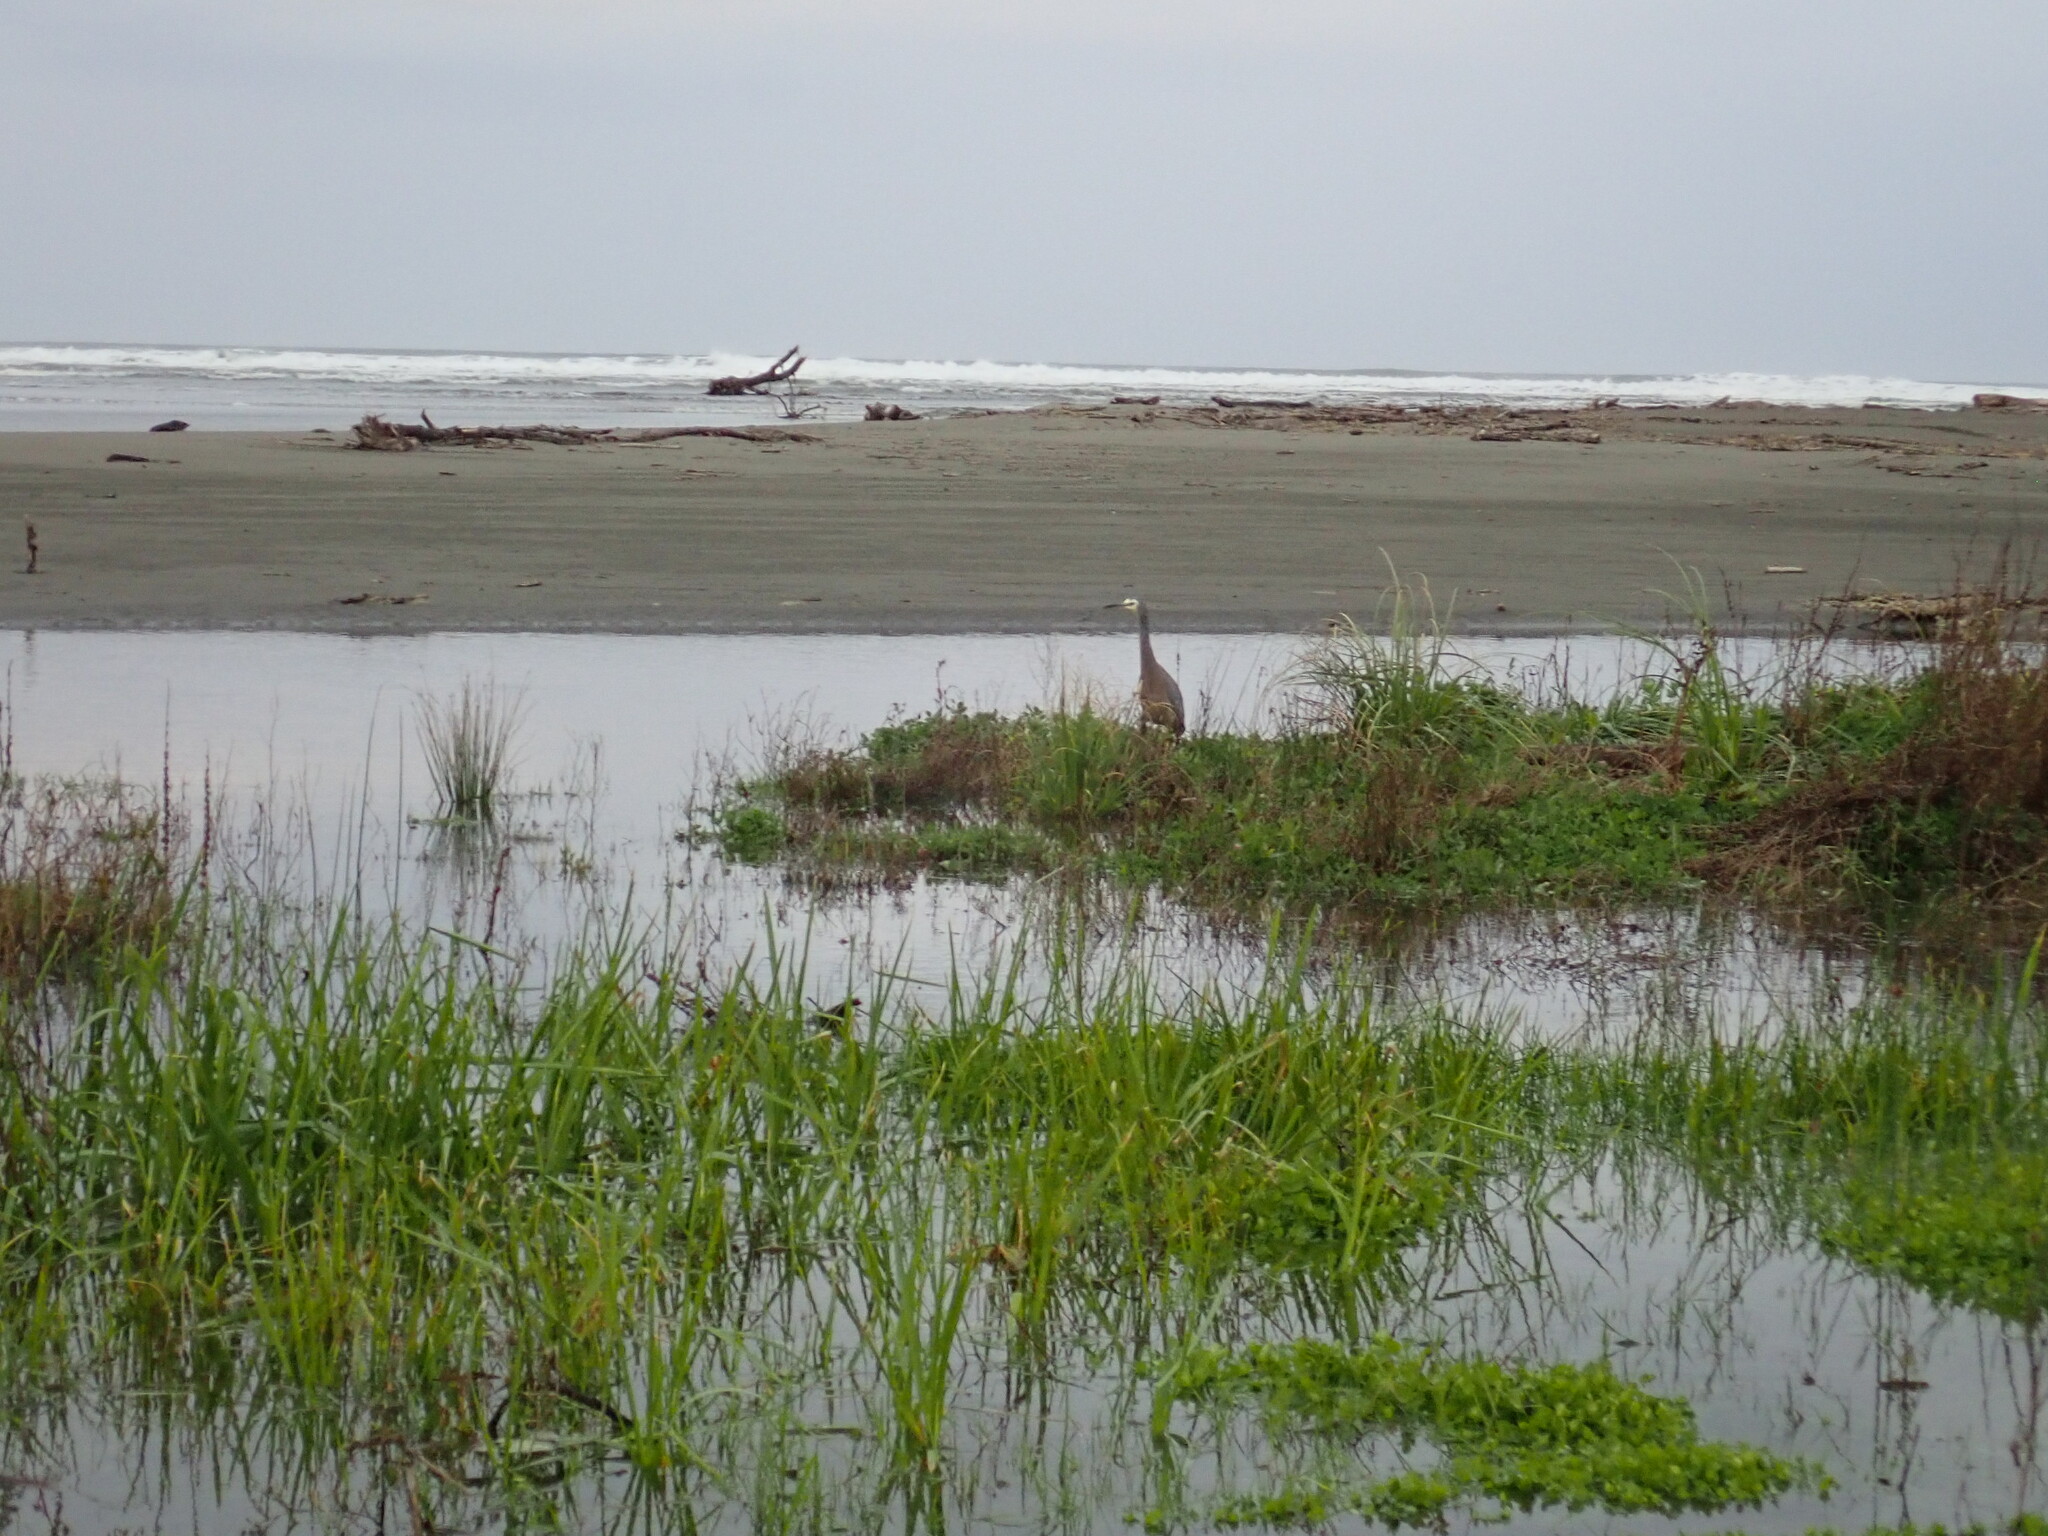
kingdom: Animalia
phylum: Chordata
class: Aves
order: Pelecaniformes
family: Ardeidae
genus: Egretta
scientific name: Egretta novaehollandiae
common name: White-faced heron
